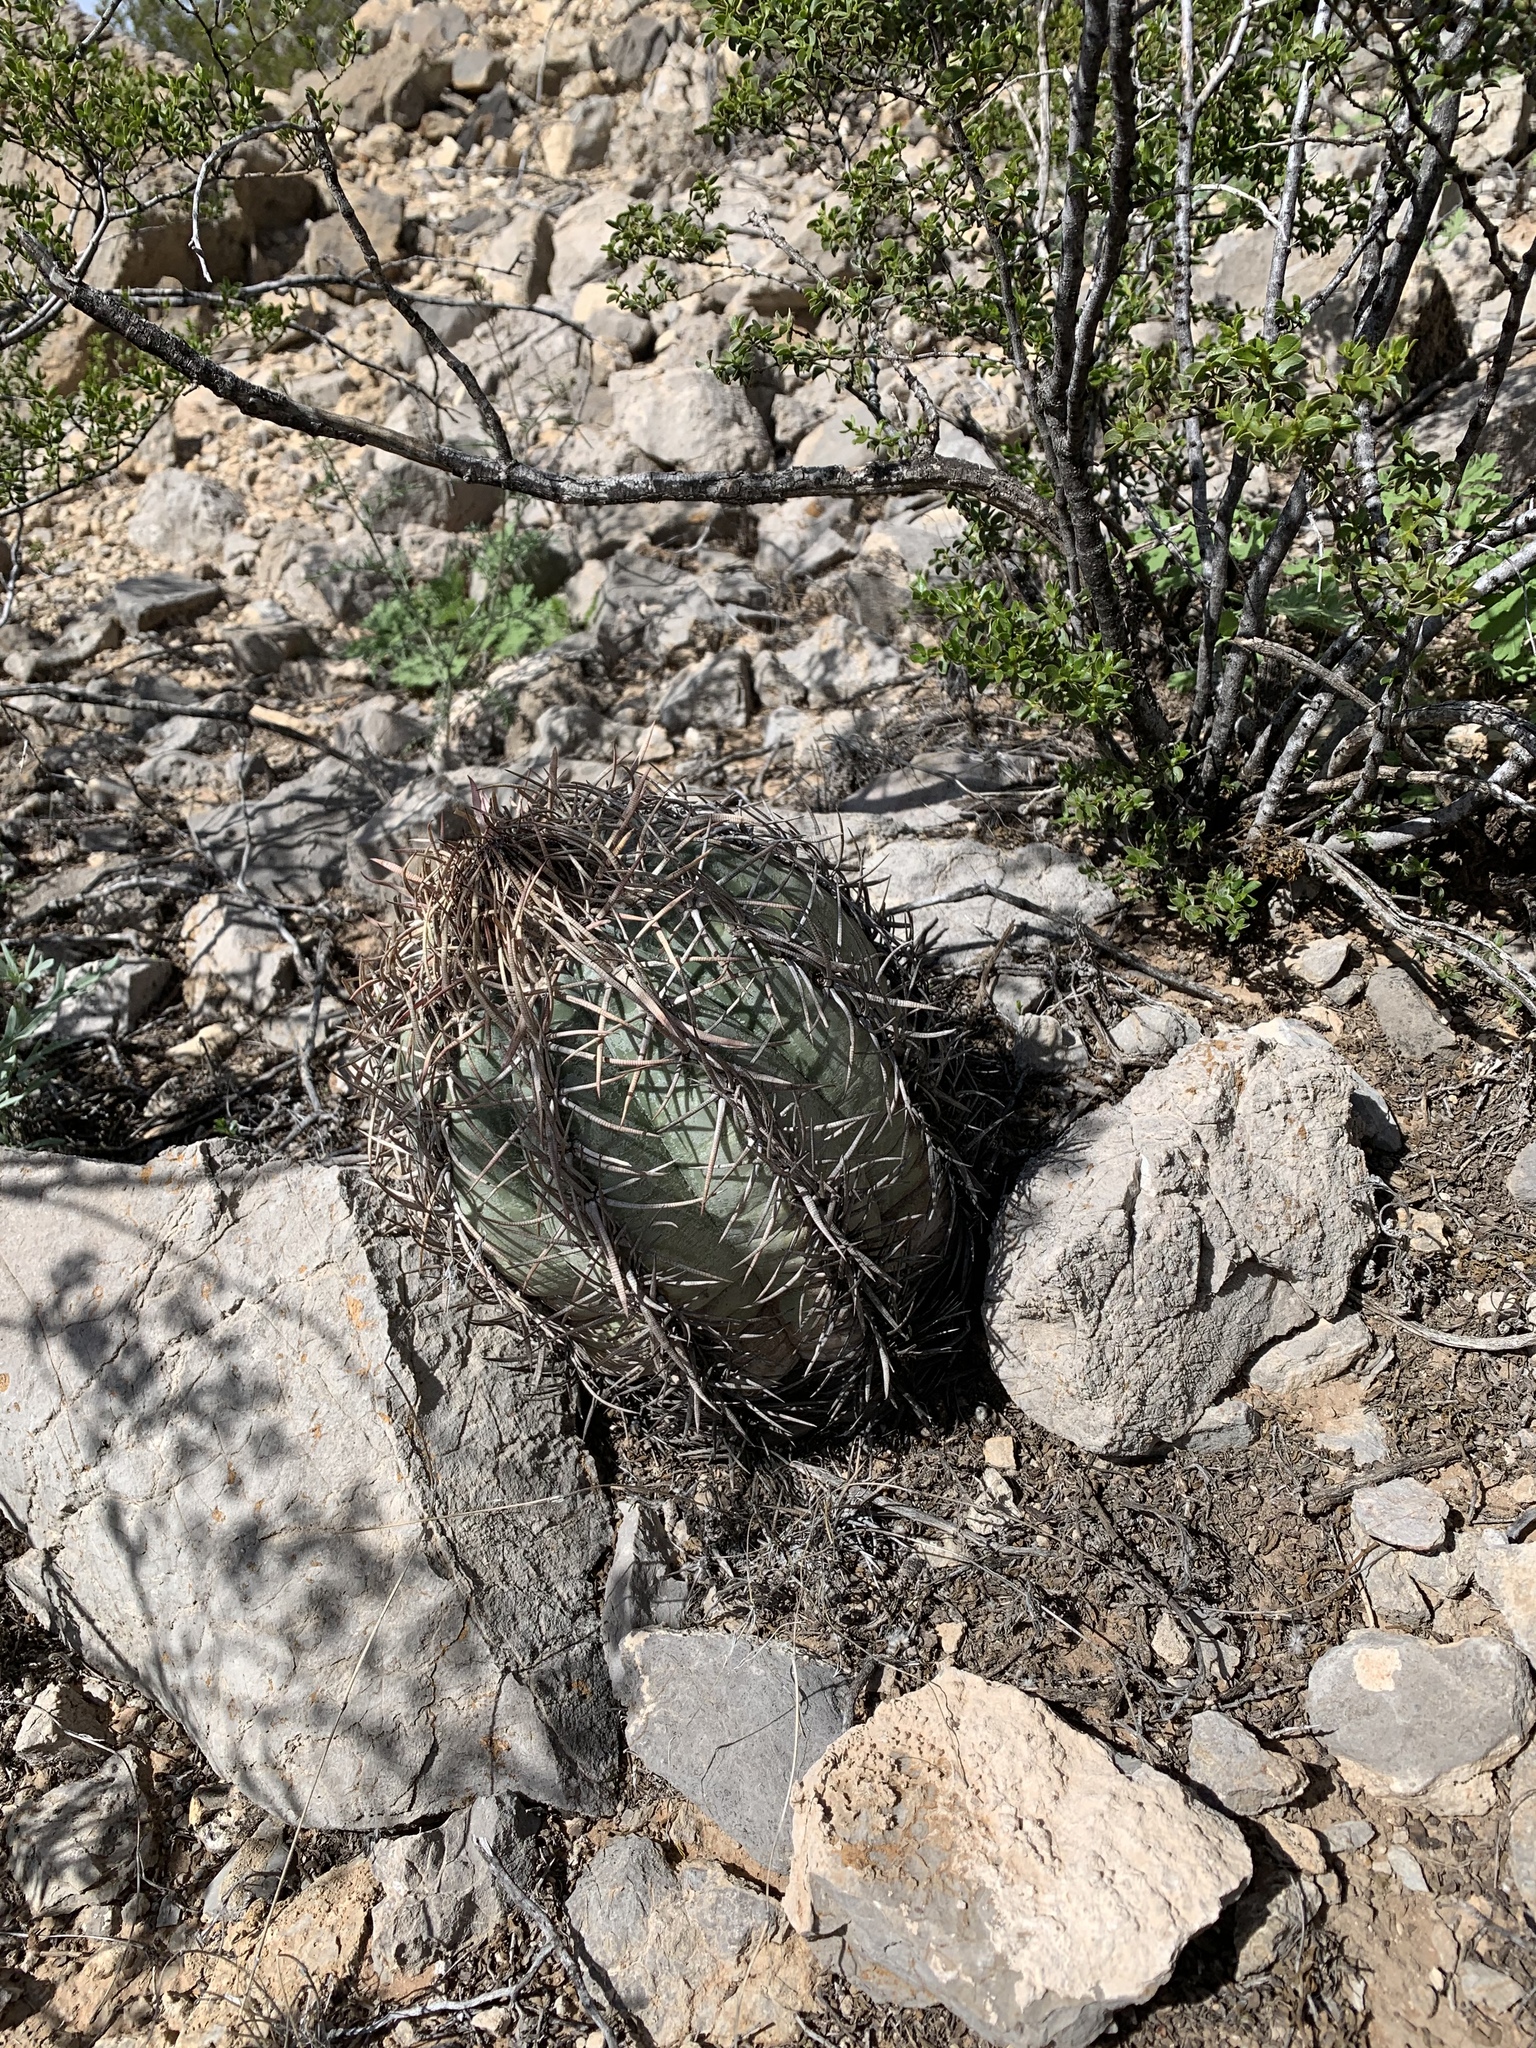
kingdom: Plantae
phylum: Tracheophyta
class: Magnoliopsida
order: Caryophyllales
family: Cactaceae
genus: Echinocactus
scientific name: Echinocactus horizonthalonius
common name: Devilshead
